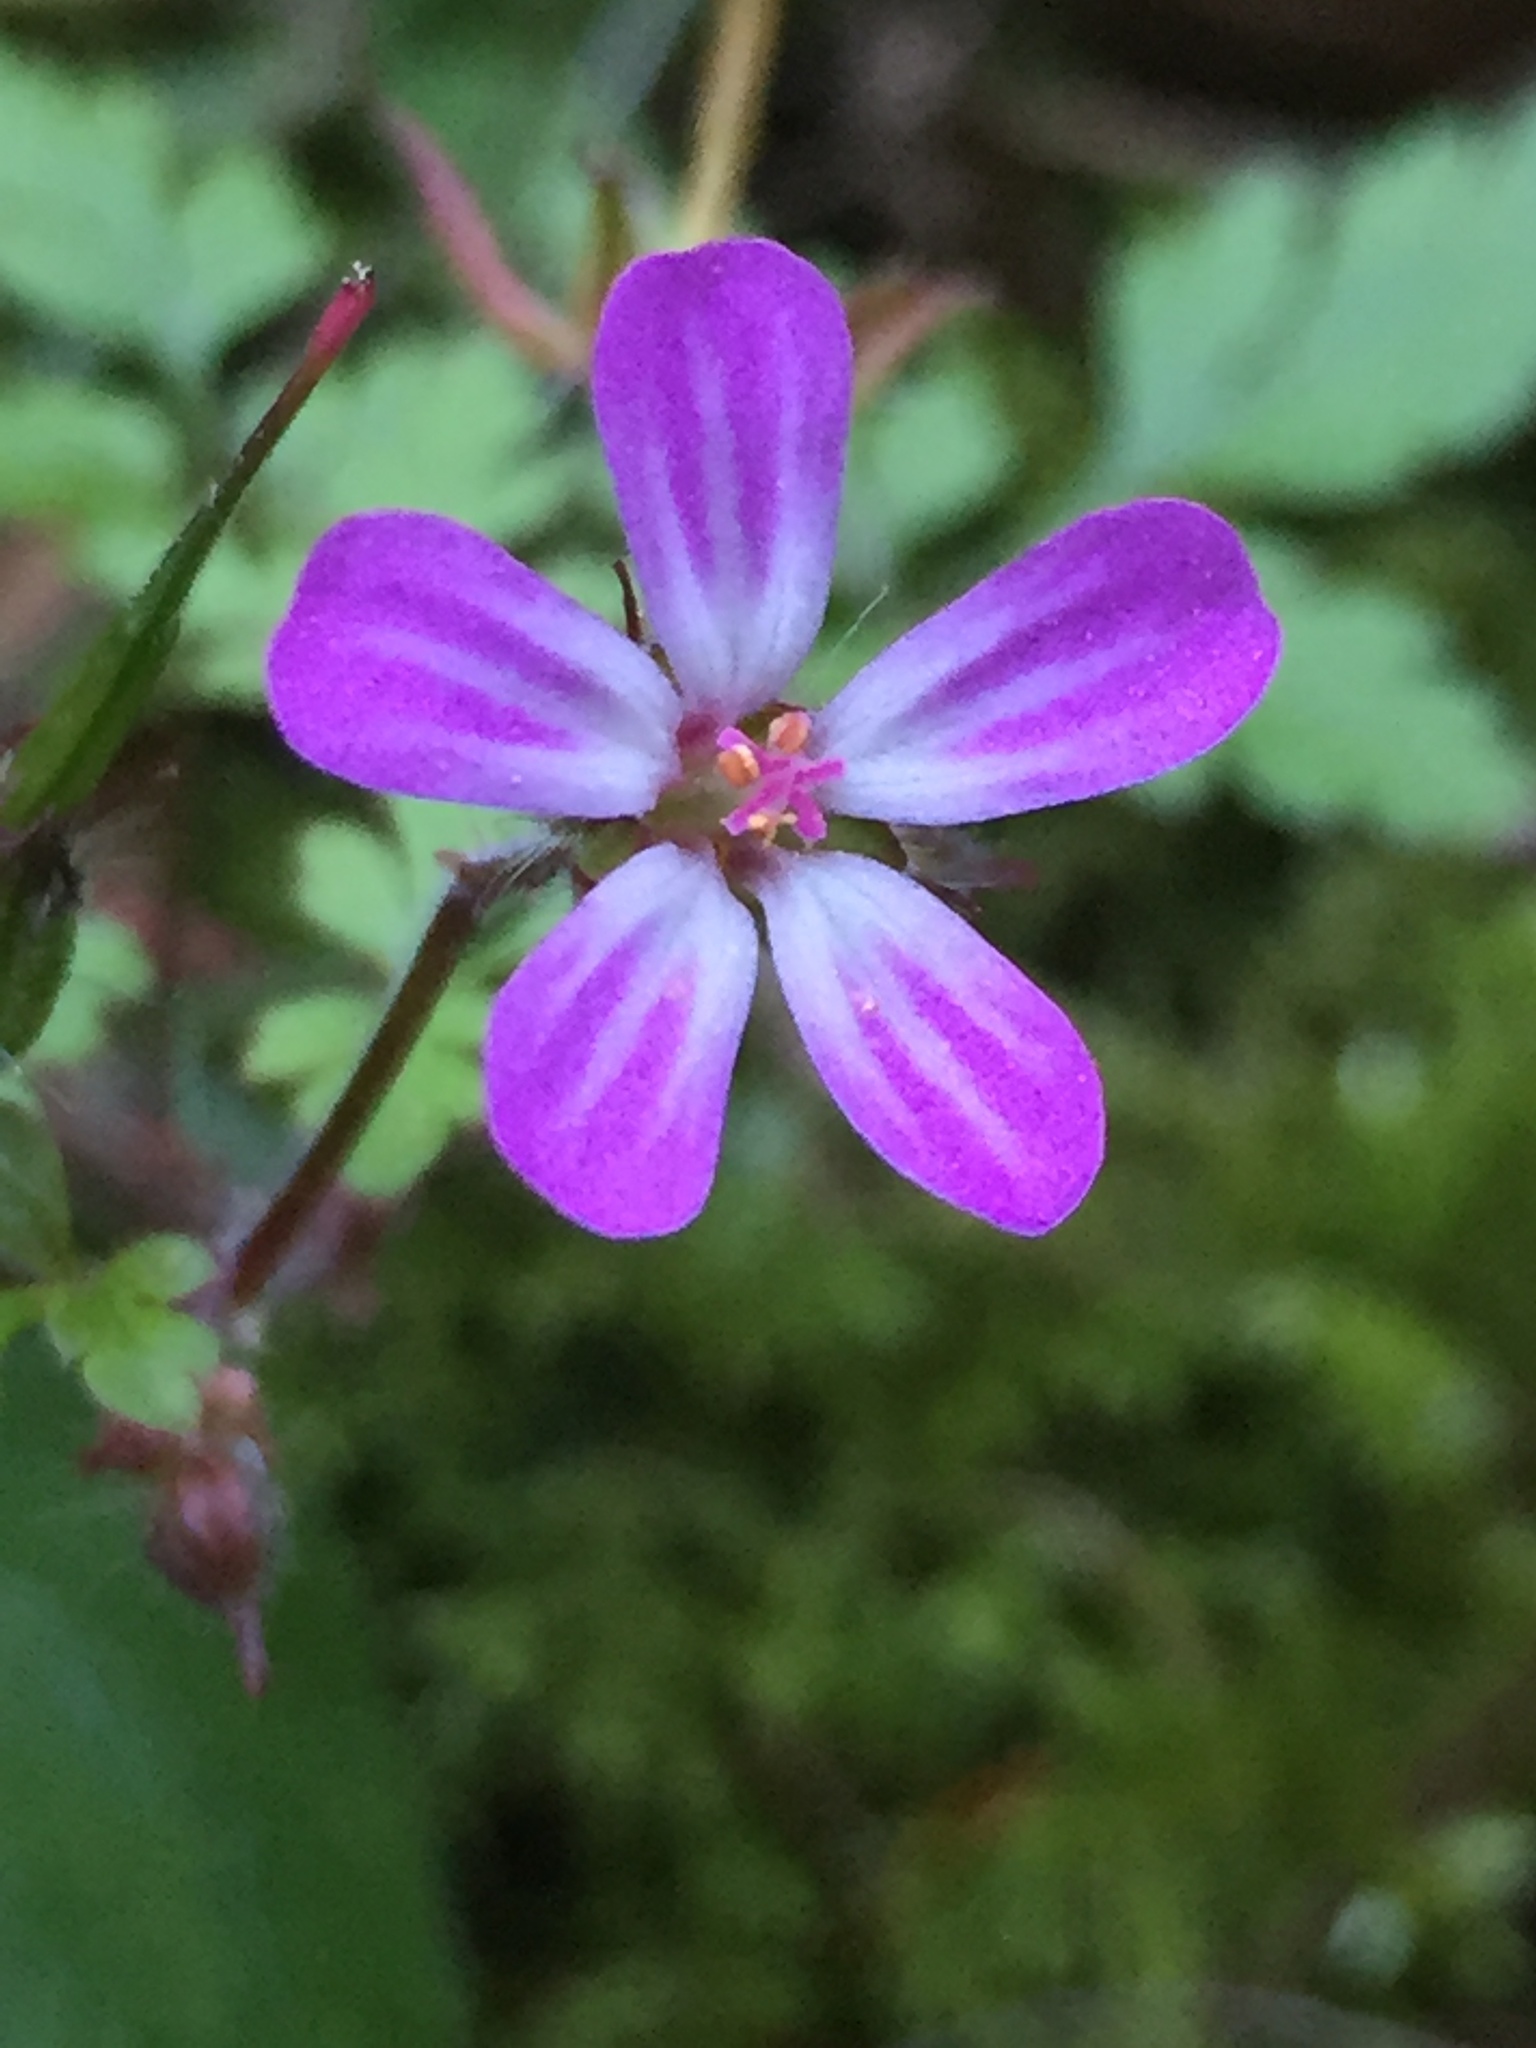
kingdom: Plantae
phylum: Tracheophyta
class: Magnoliopsida
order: Geraniales
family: Geraniaceae
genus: Geranium
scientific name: Geranium robertianum
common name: Herb-robert
